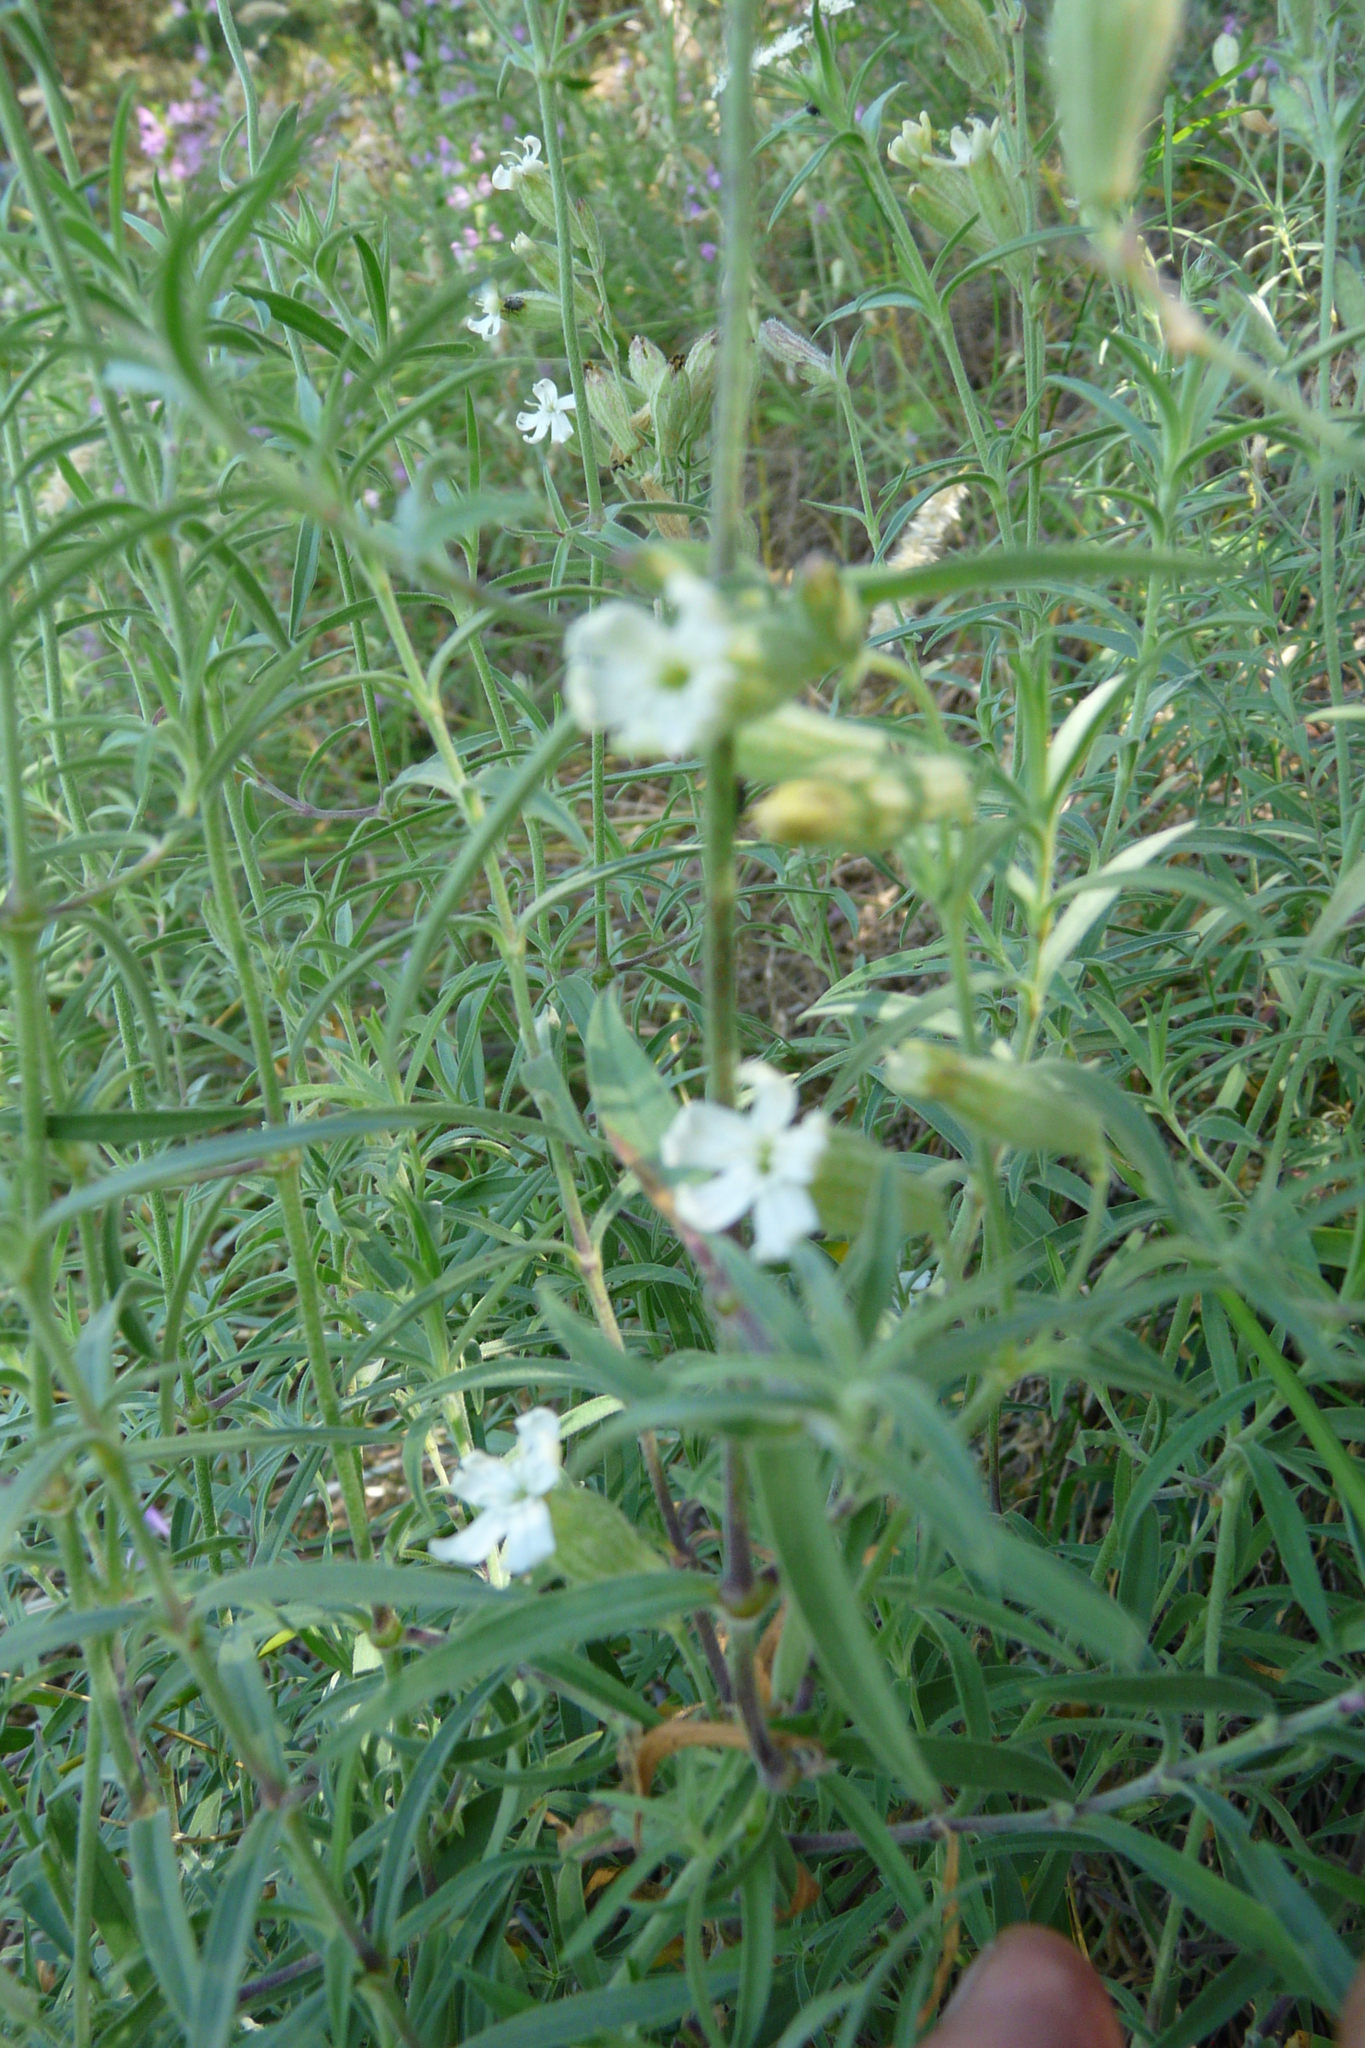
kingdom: Plantae
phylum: Tracheophyta
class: Magnoliopsida
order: Caryophyllales
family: Caryophyllaceae
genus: Silene
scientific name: Silene amoena
